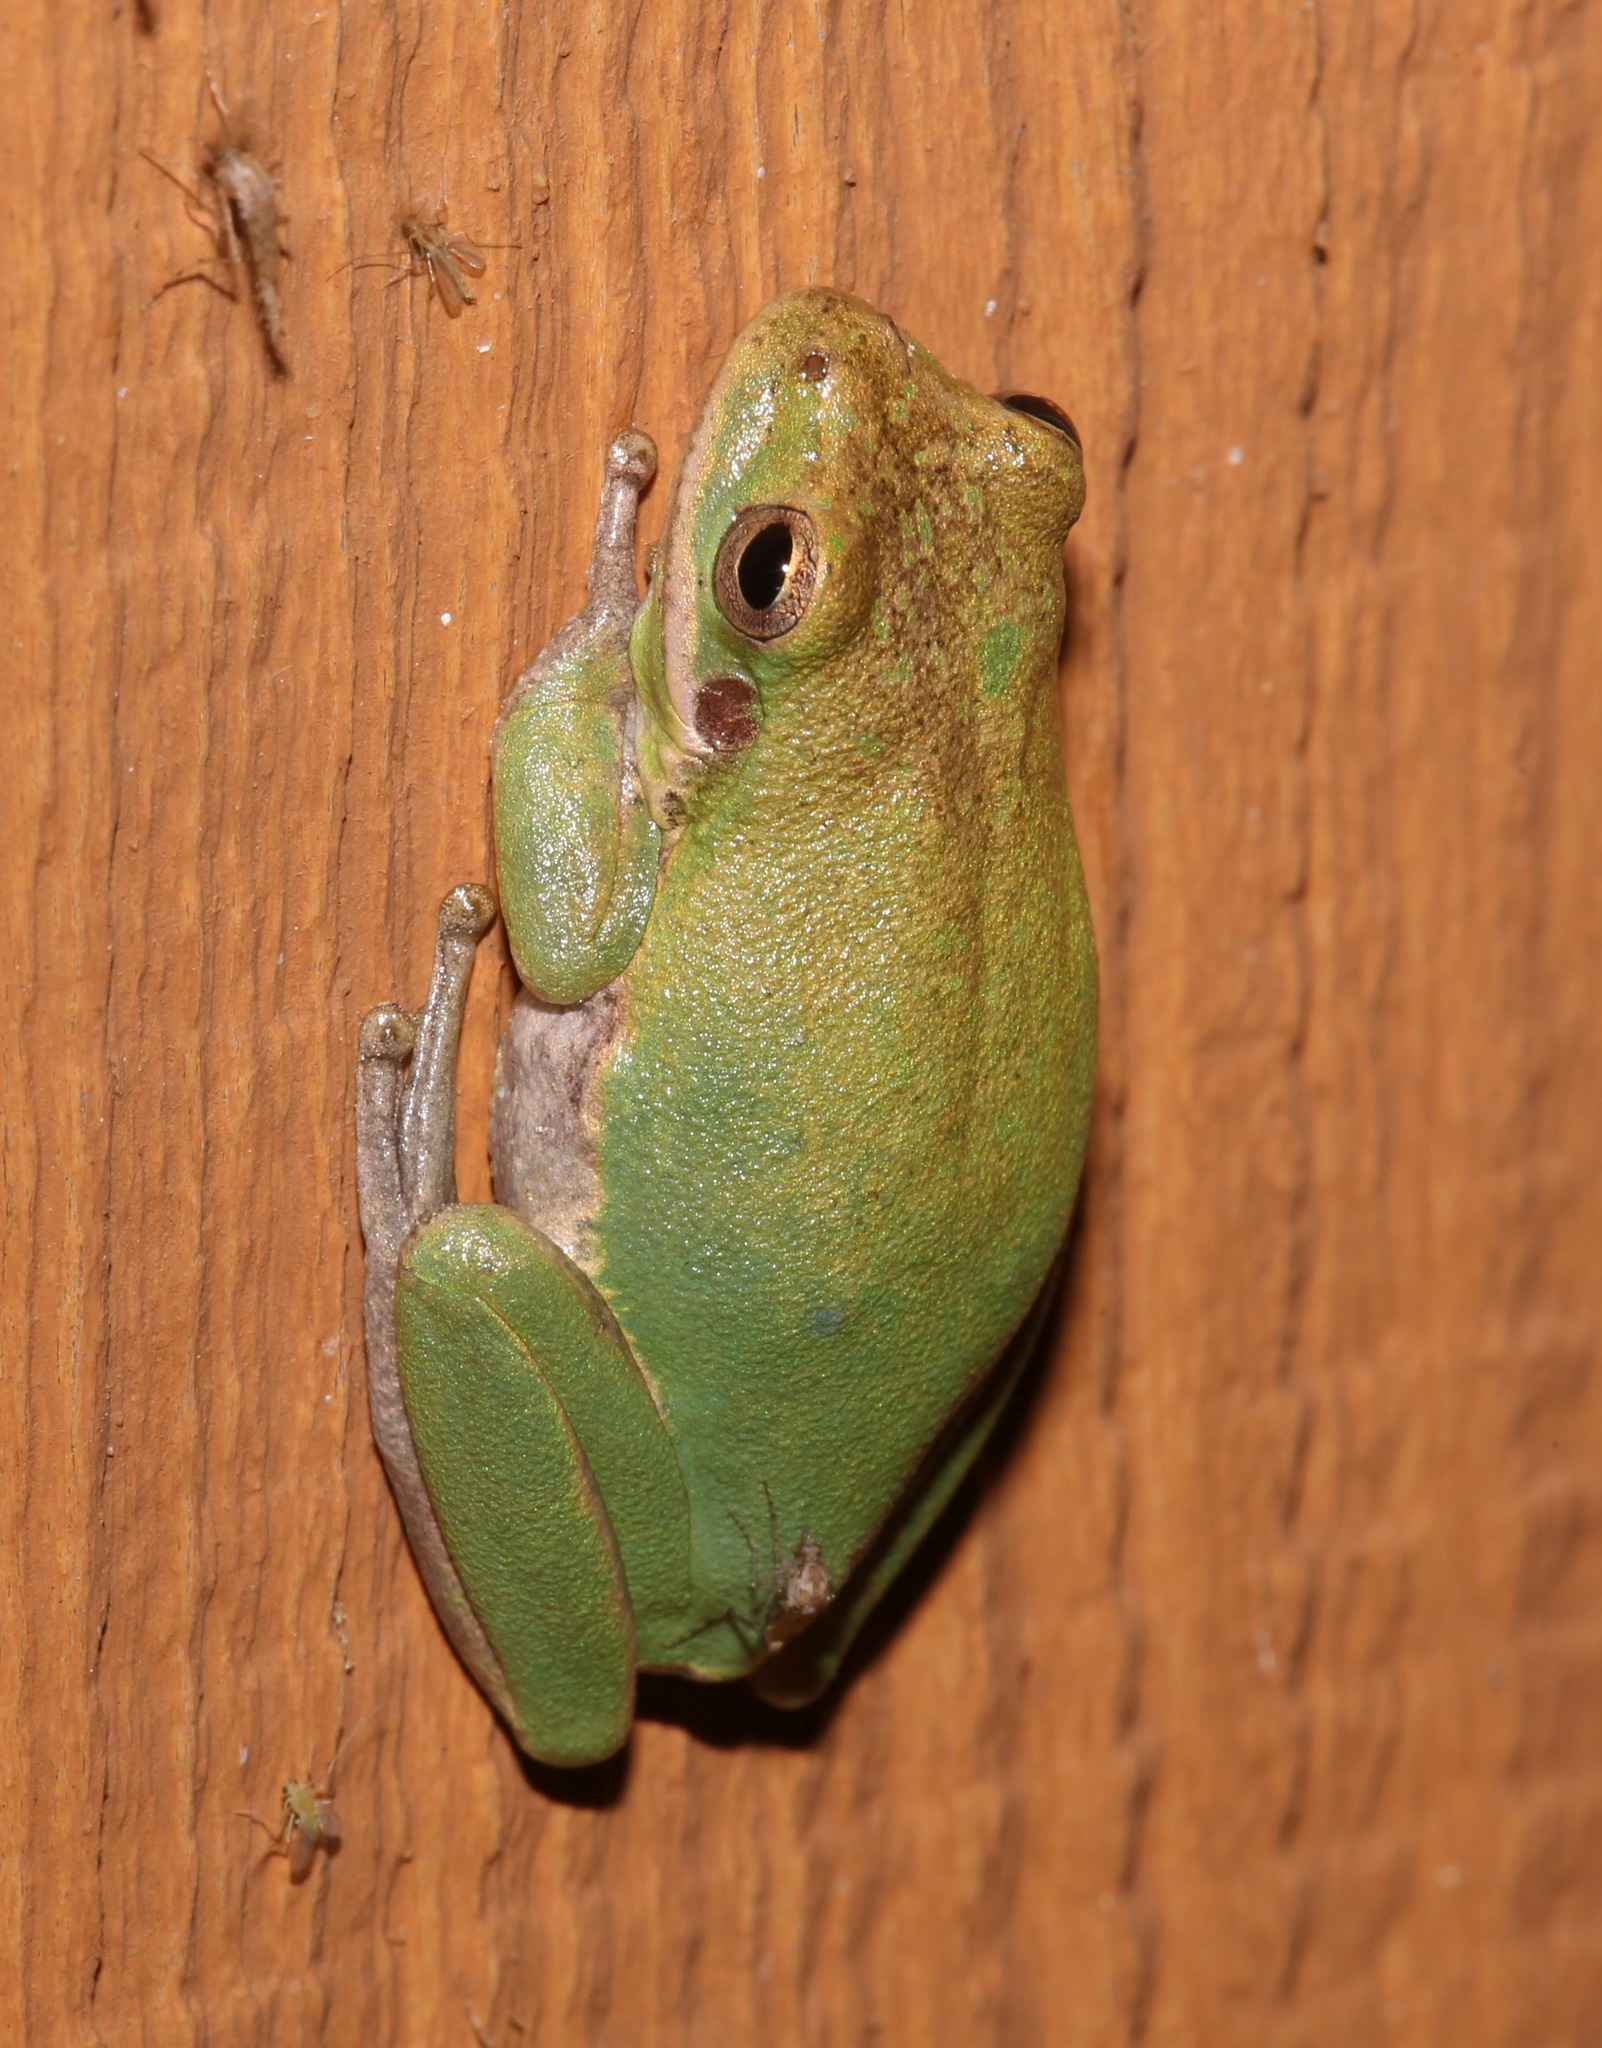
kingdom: Animalia
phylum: Chordata
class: Amphibia
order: Anura
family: Hylidae
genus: Dryophytes
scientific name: Dryophytes squirellus
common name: Squirrel treefrog
